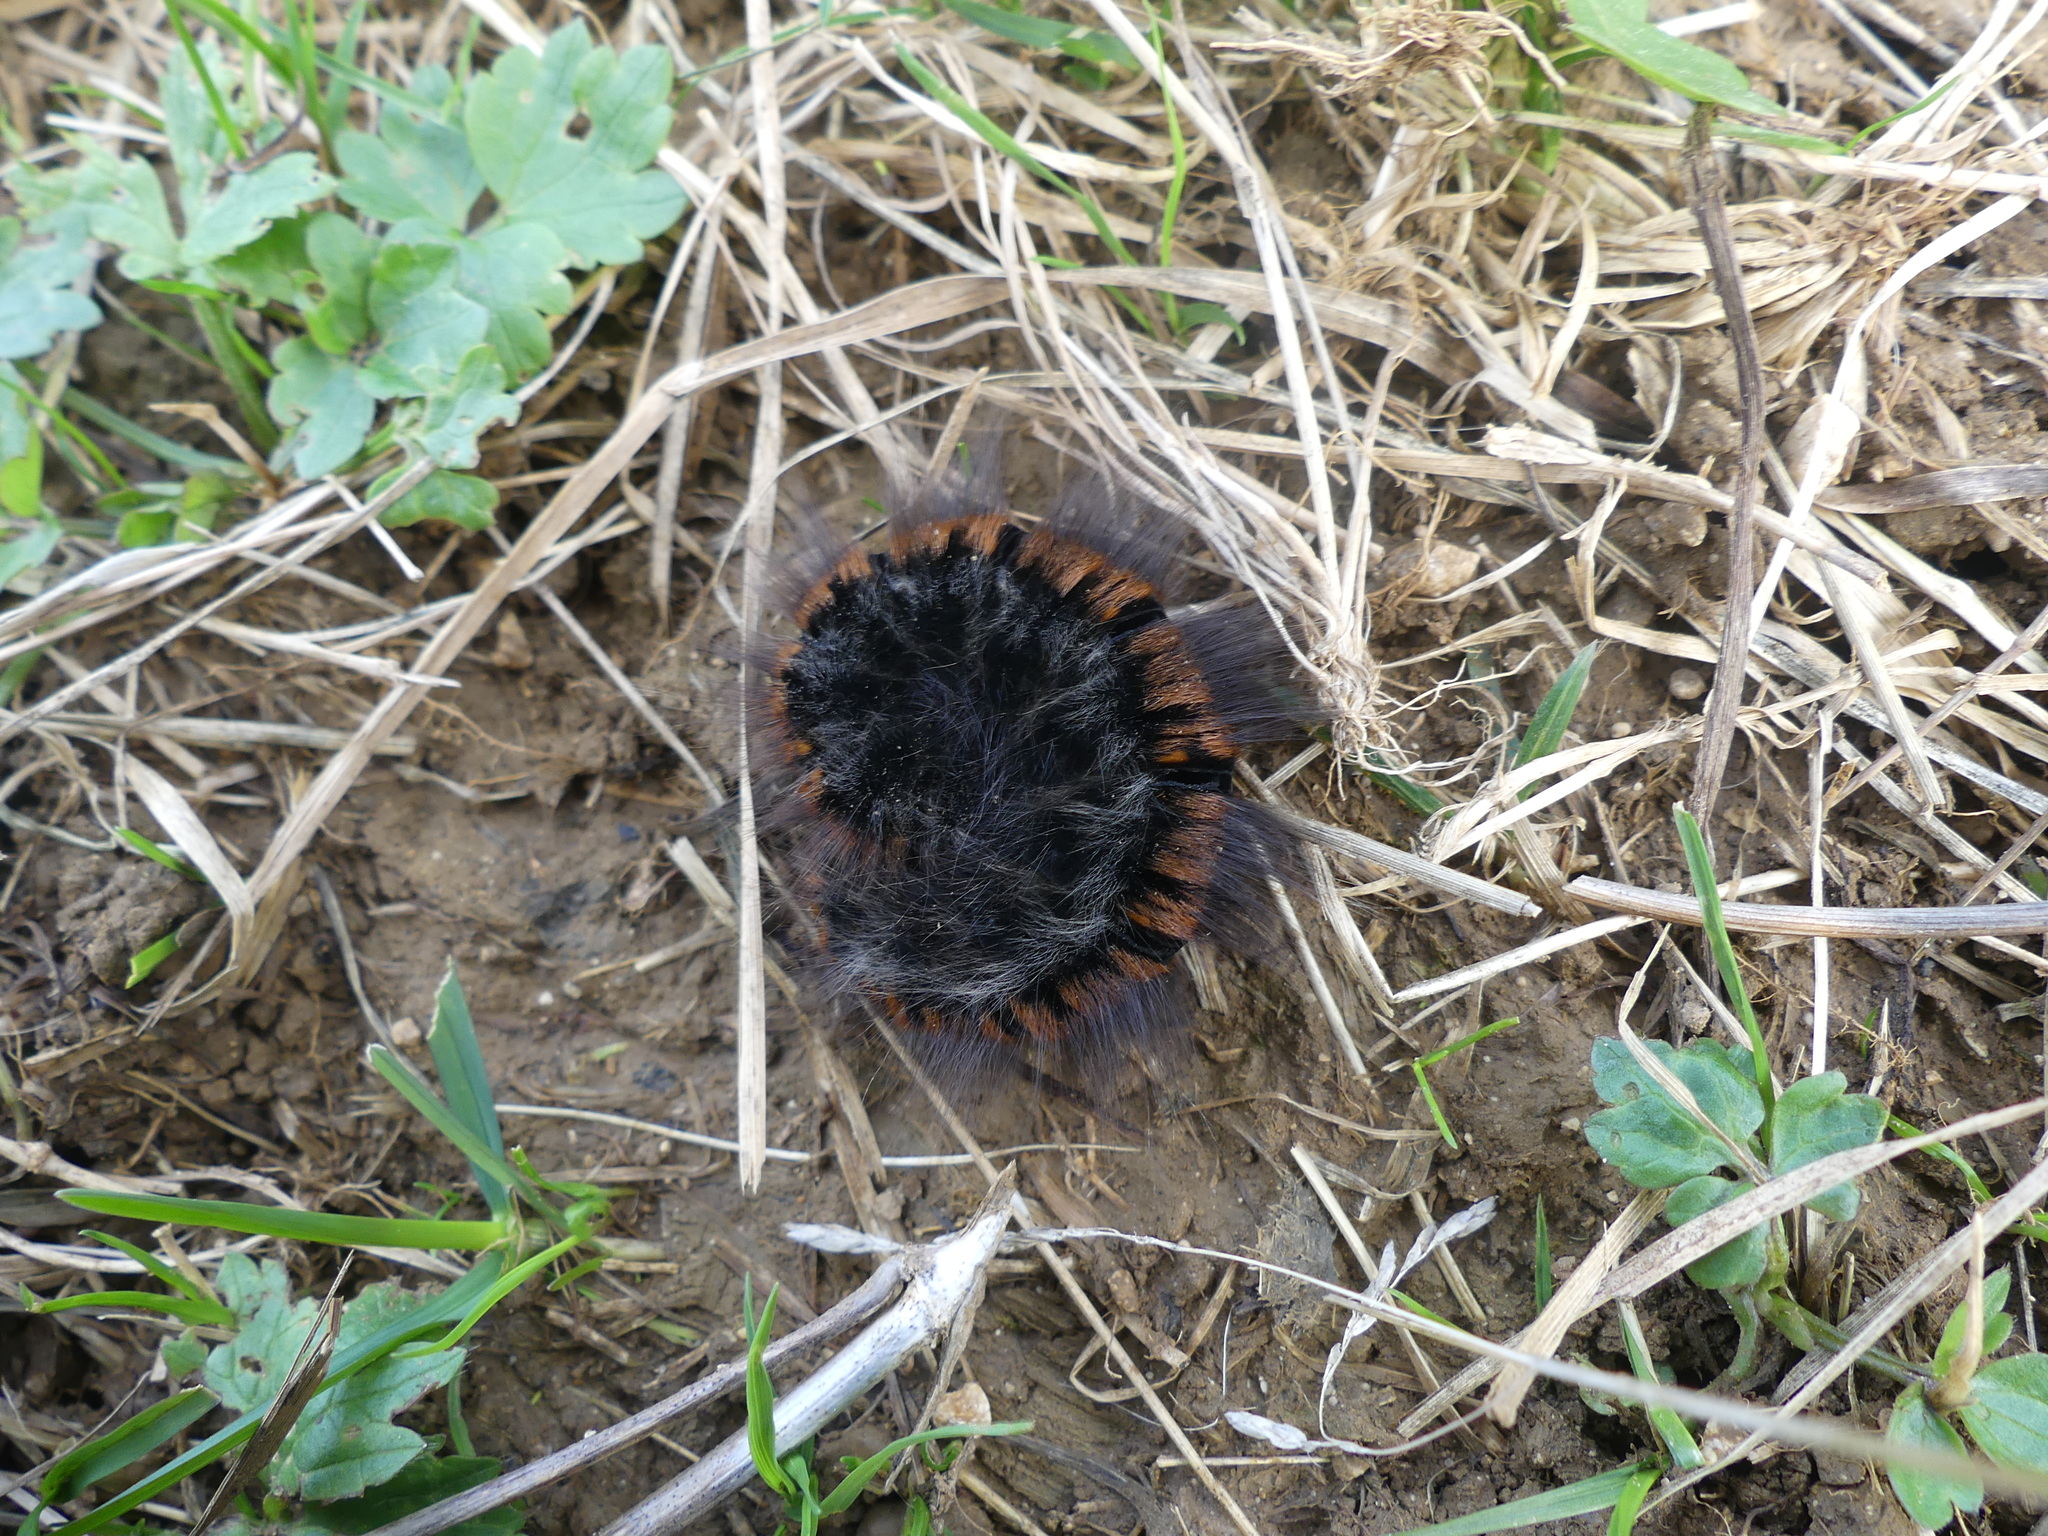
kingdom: Animalia
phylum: Arthropoda
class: Insecta
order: Lepidoptera
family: Lasiocampidae
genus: Macrothylacia
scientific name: Macrothylacia rubi
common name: Fox moth
